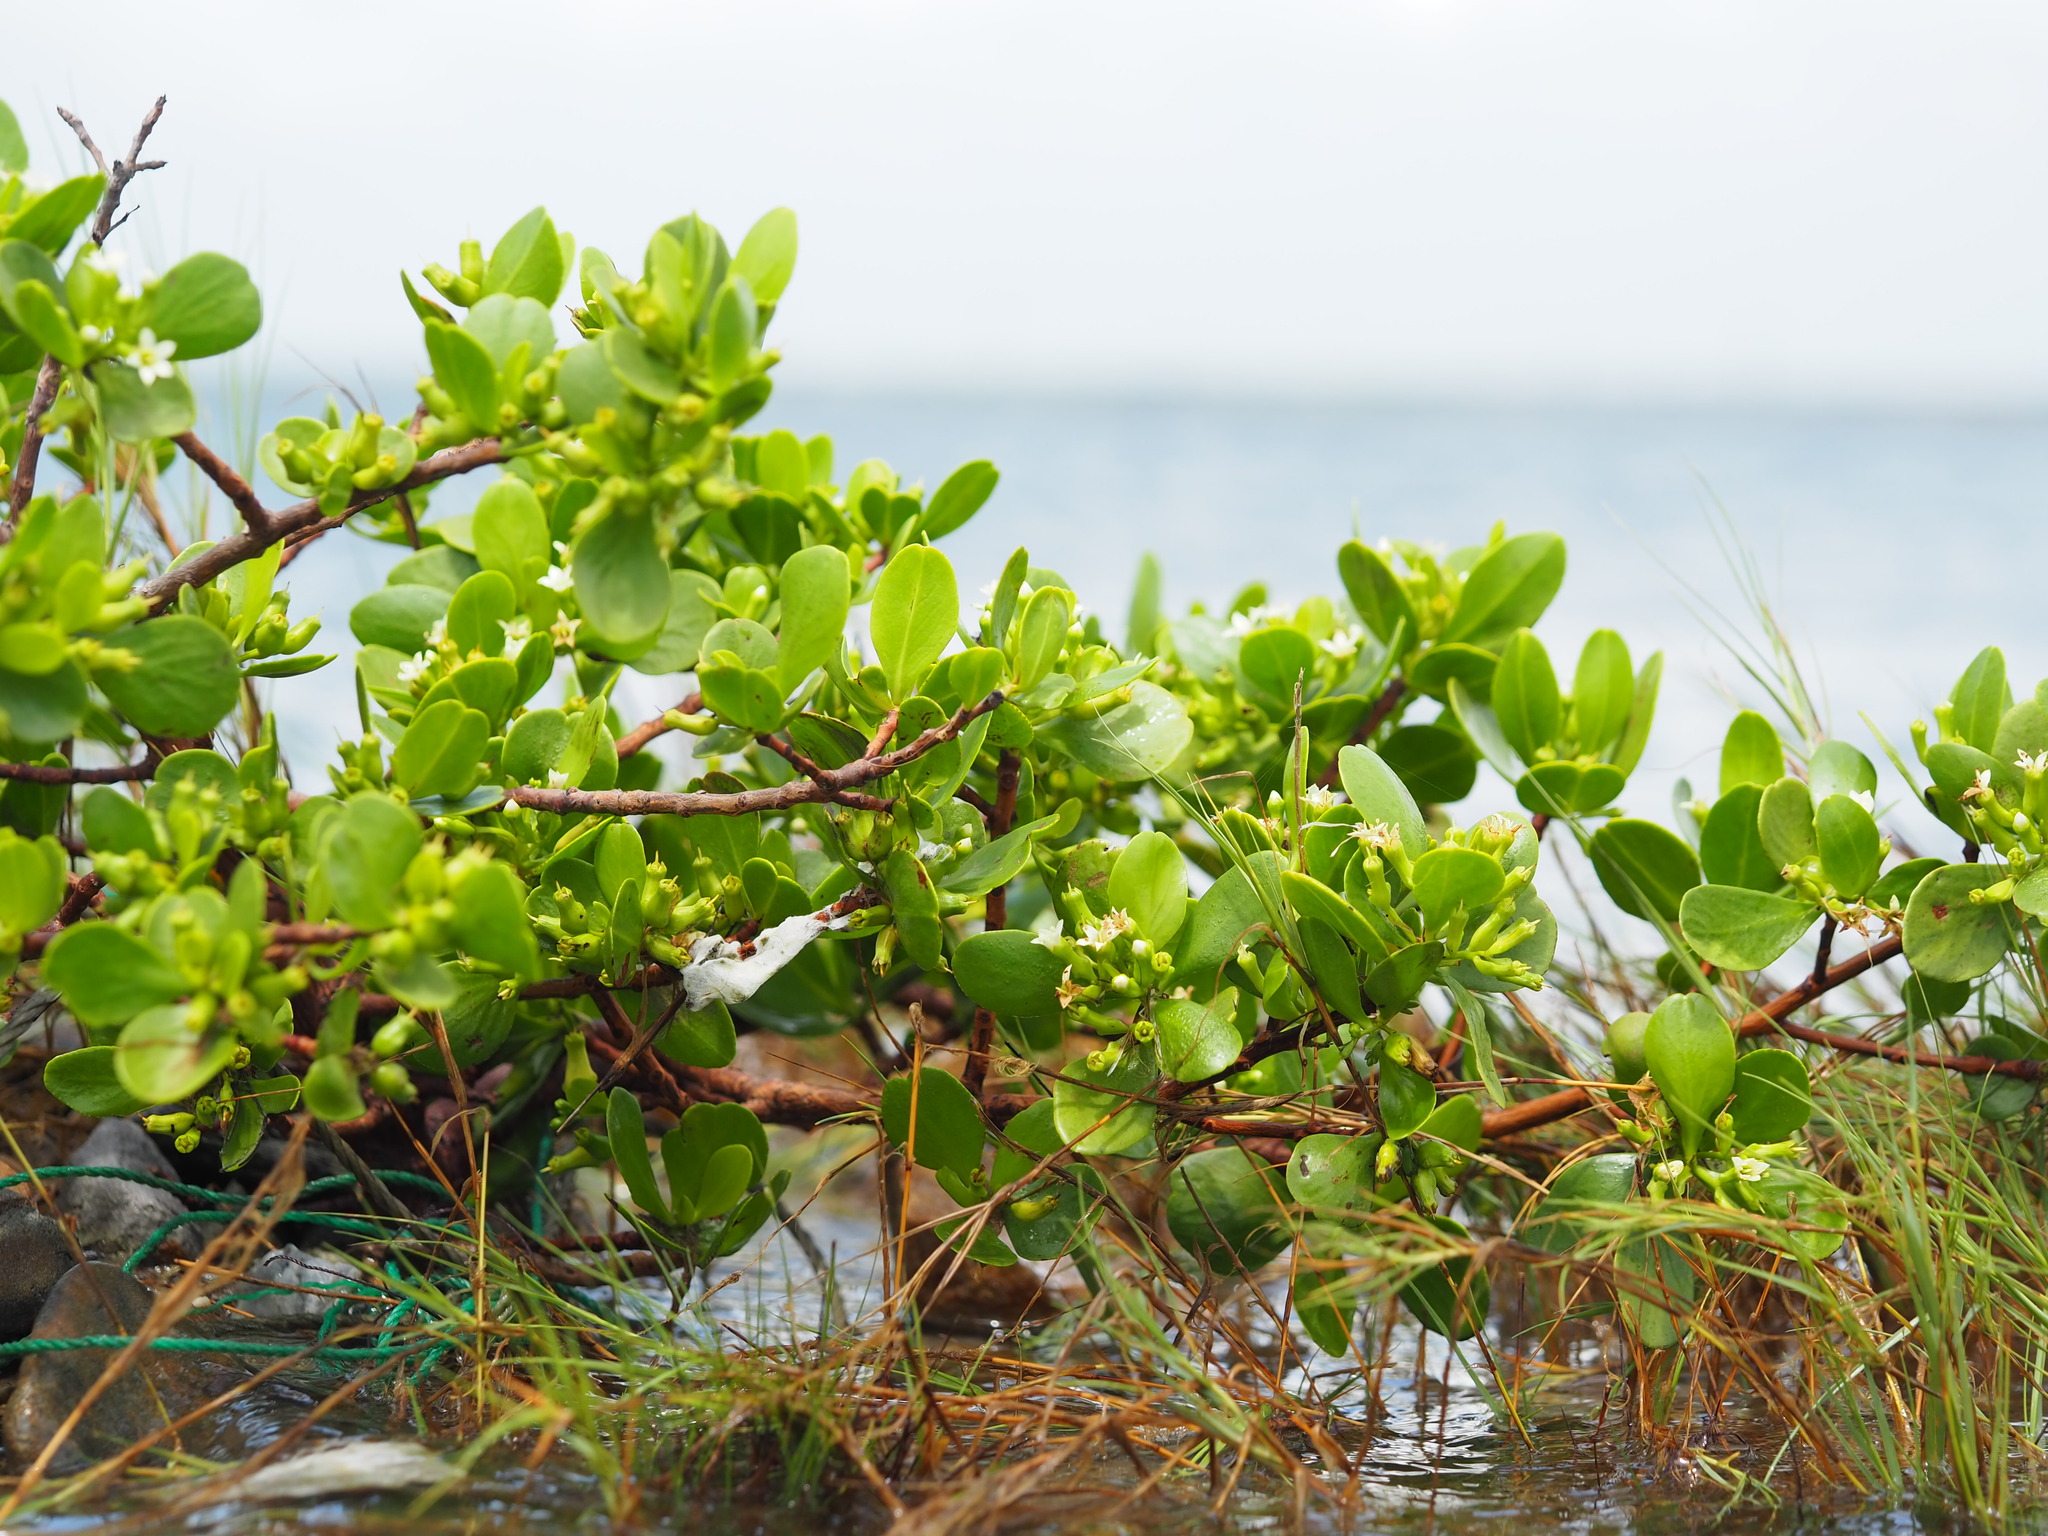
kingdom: Plantae
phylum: Tracheophyta
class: Magnoliopsida
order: Myrtales
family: Combretaceae
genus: Lumnitzera
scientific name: Lumnitzera racemosa
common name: White-flowered black mangrove
